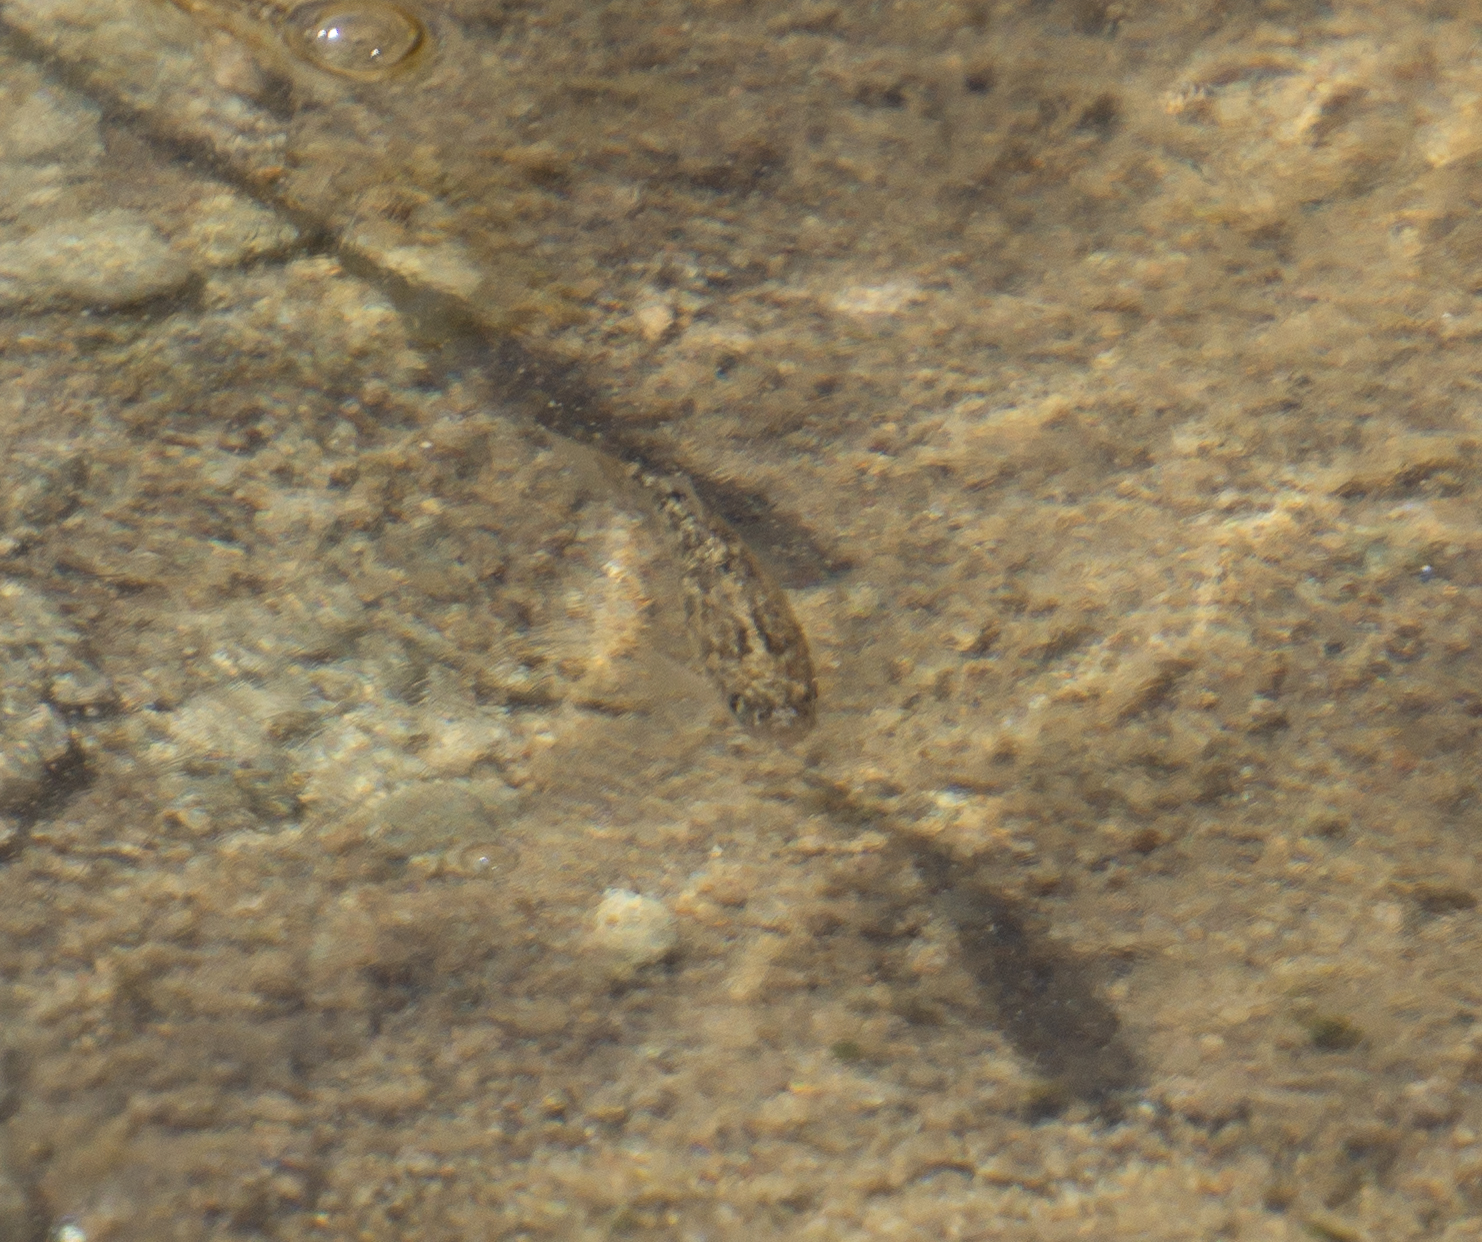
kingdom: Animalia
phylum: Chordata
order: Cyprinodontiformes
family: Cyprinodontidae
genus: Cyprinodon
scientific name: Cyprinodon salinus
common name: Cottonball marsh pupfish
